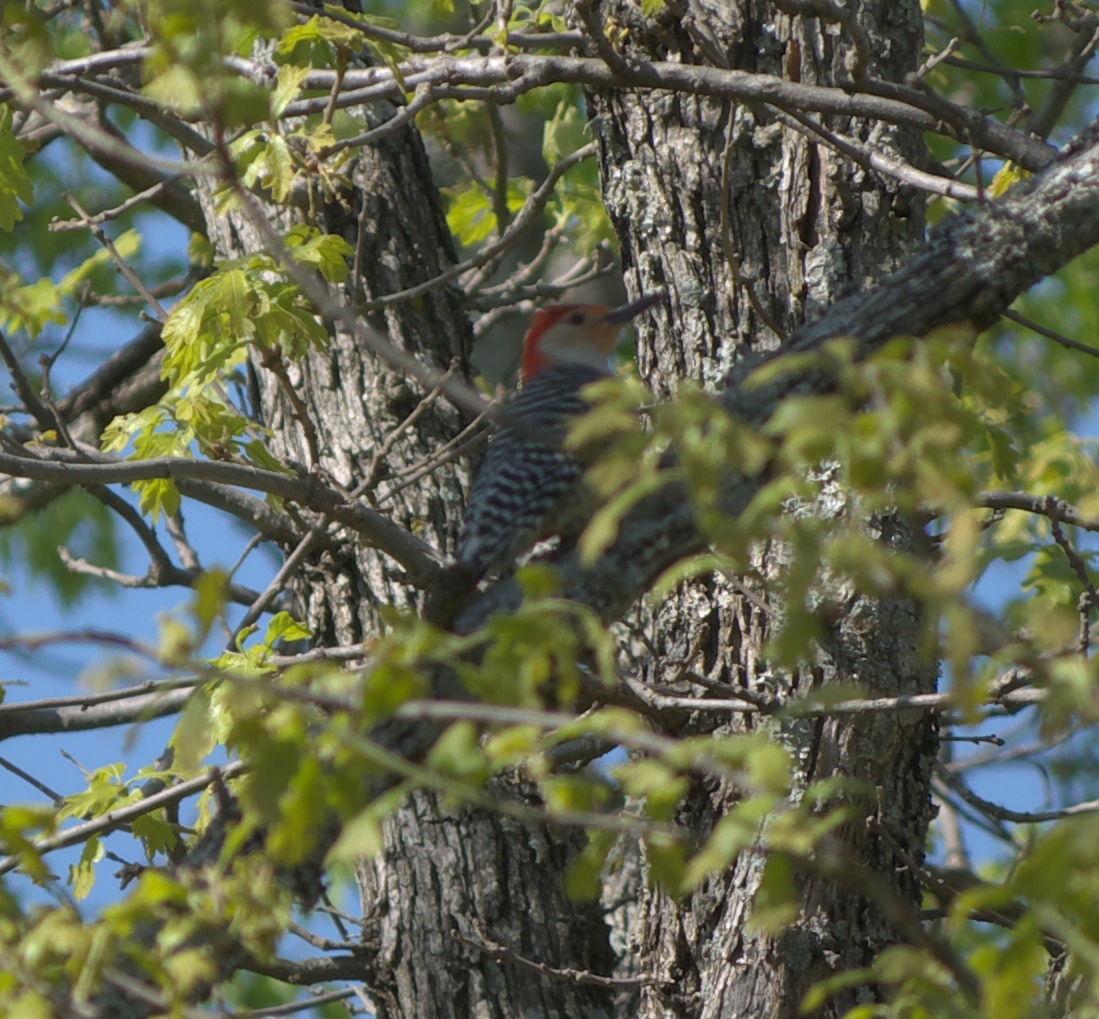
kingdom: Animalia
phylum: Chordata
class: Aves
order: Piciformes
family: Picidae
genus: Melanerpes
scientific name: Melanerpes carolinus
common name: Red-bellied woodpecker
